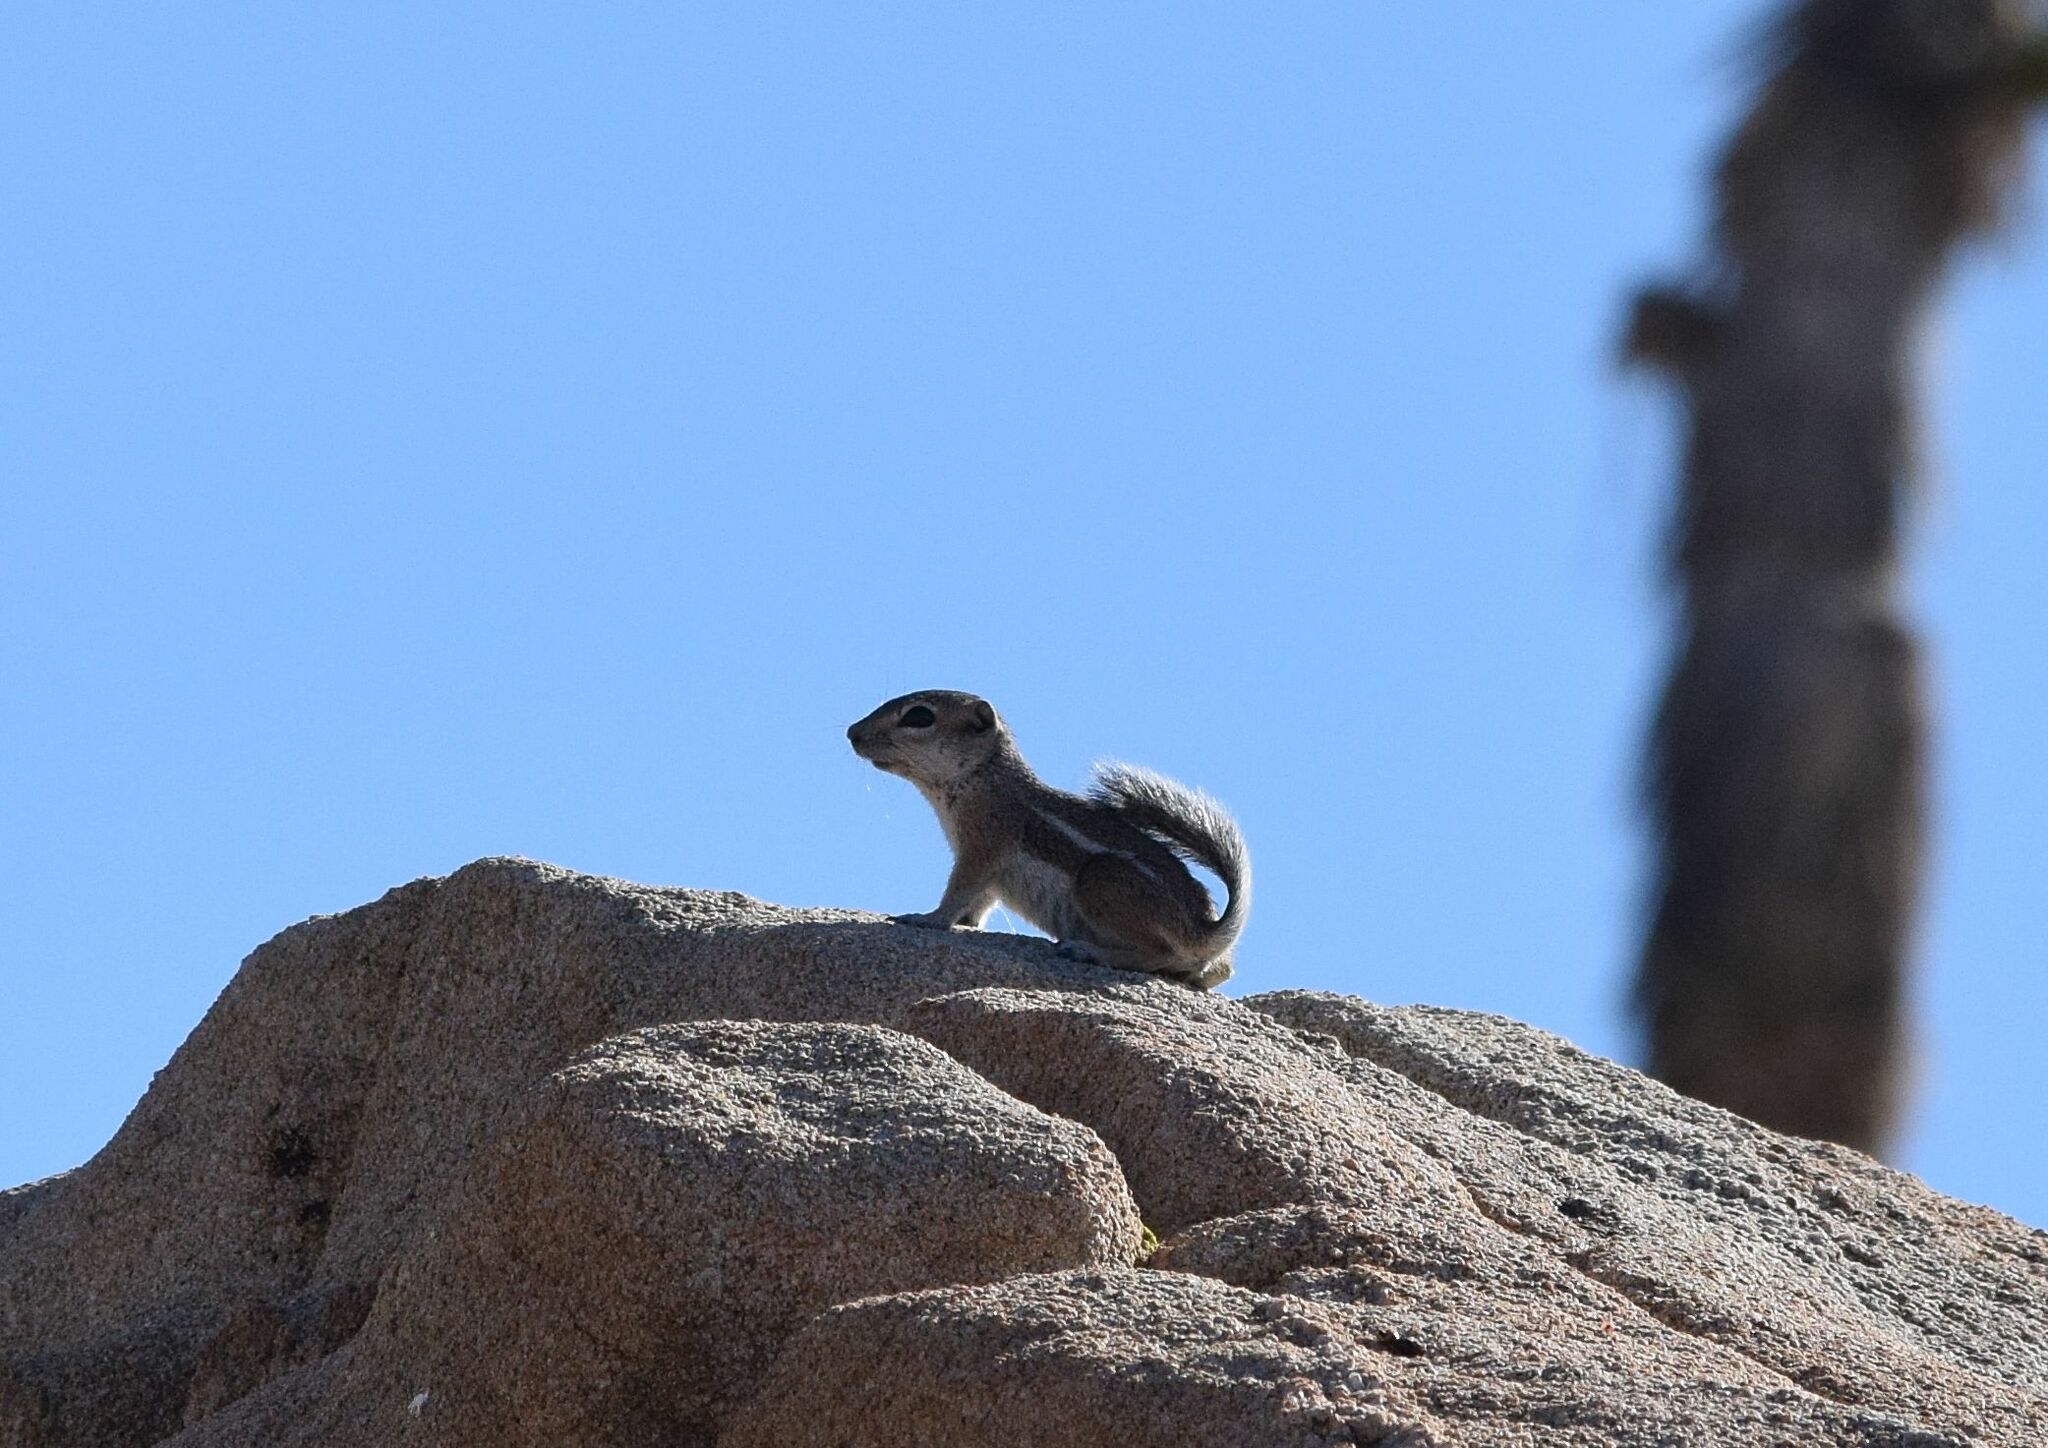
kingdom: Animalia
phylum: Chordata
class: Mammalia
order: Rodentia
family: Sciuridae
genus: Ammospermophilus
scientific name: Ammospermophilus leucurus
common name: White-tailed antelope squirrel
